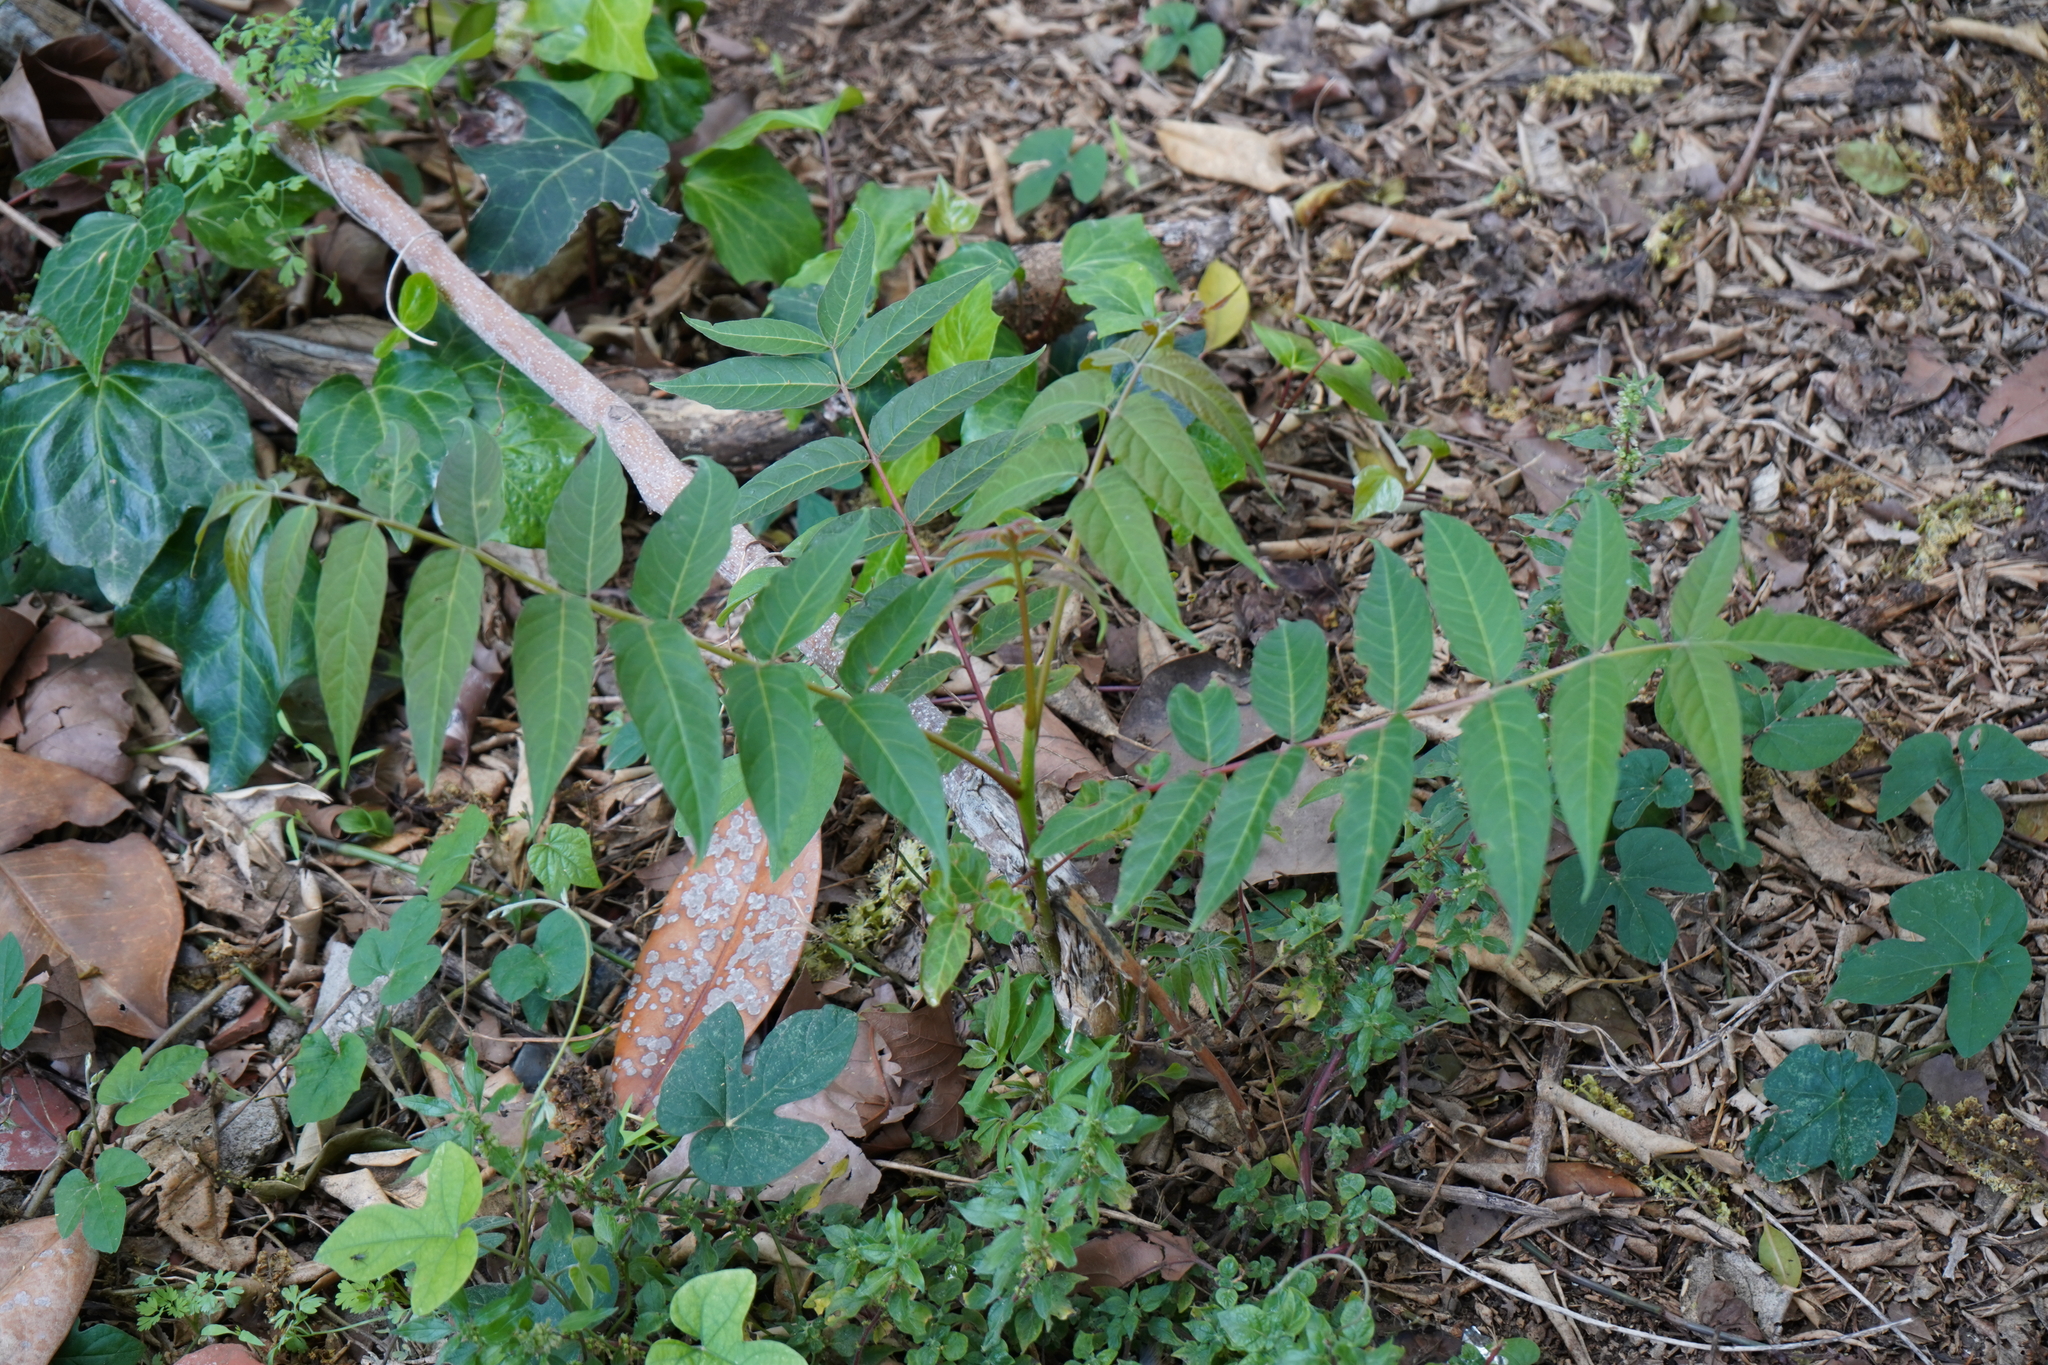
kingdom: Plantae
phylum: Tracheophyta
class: Magnoliopsida
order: Sapindales
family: Simaroubaceae
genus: Ailanthus
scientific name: Ailanthus altissima
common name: Tree-of-heaven
